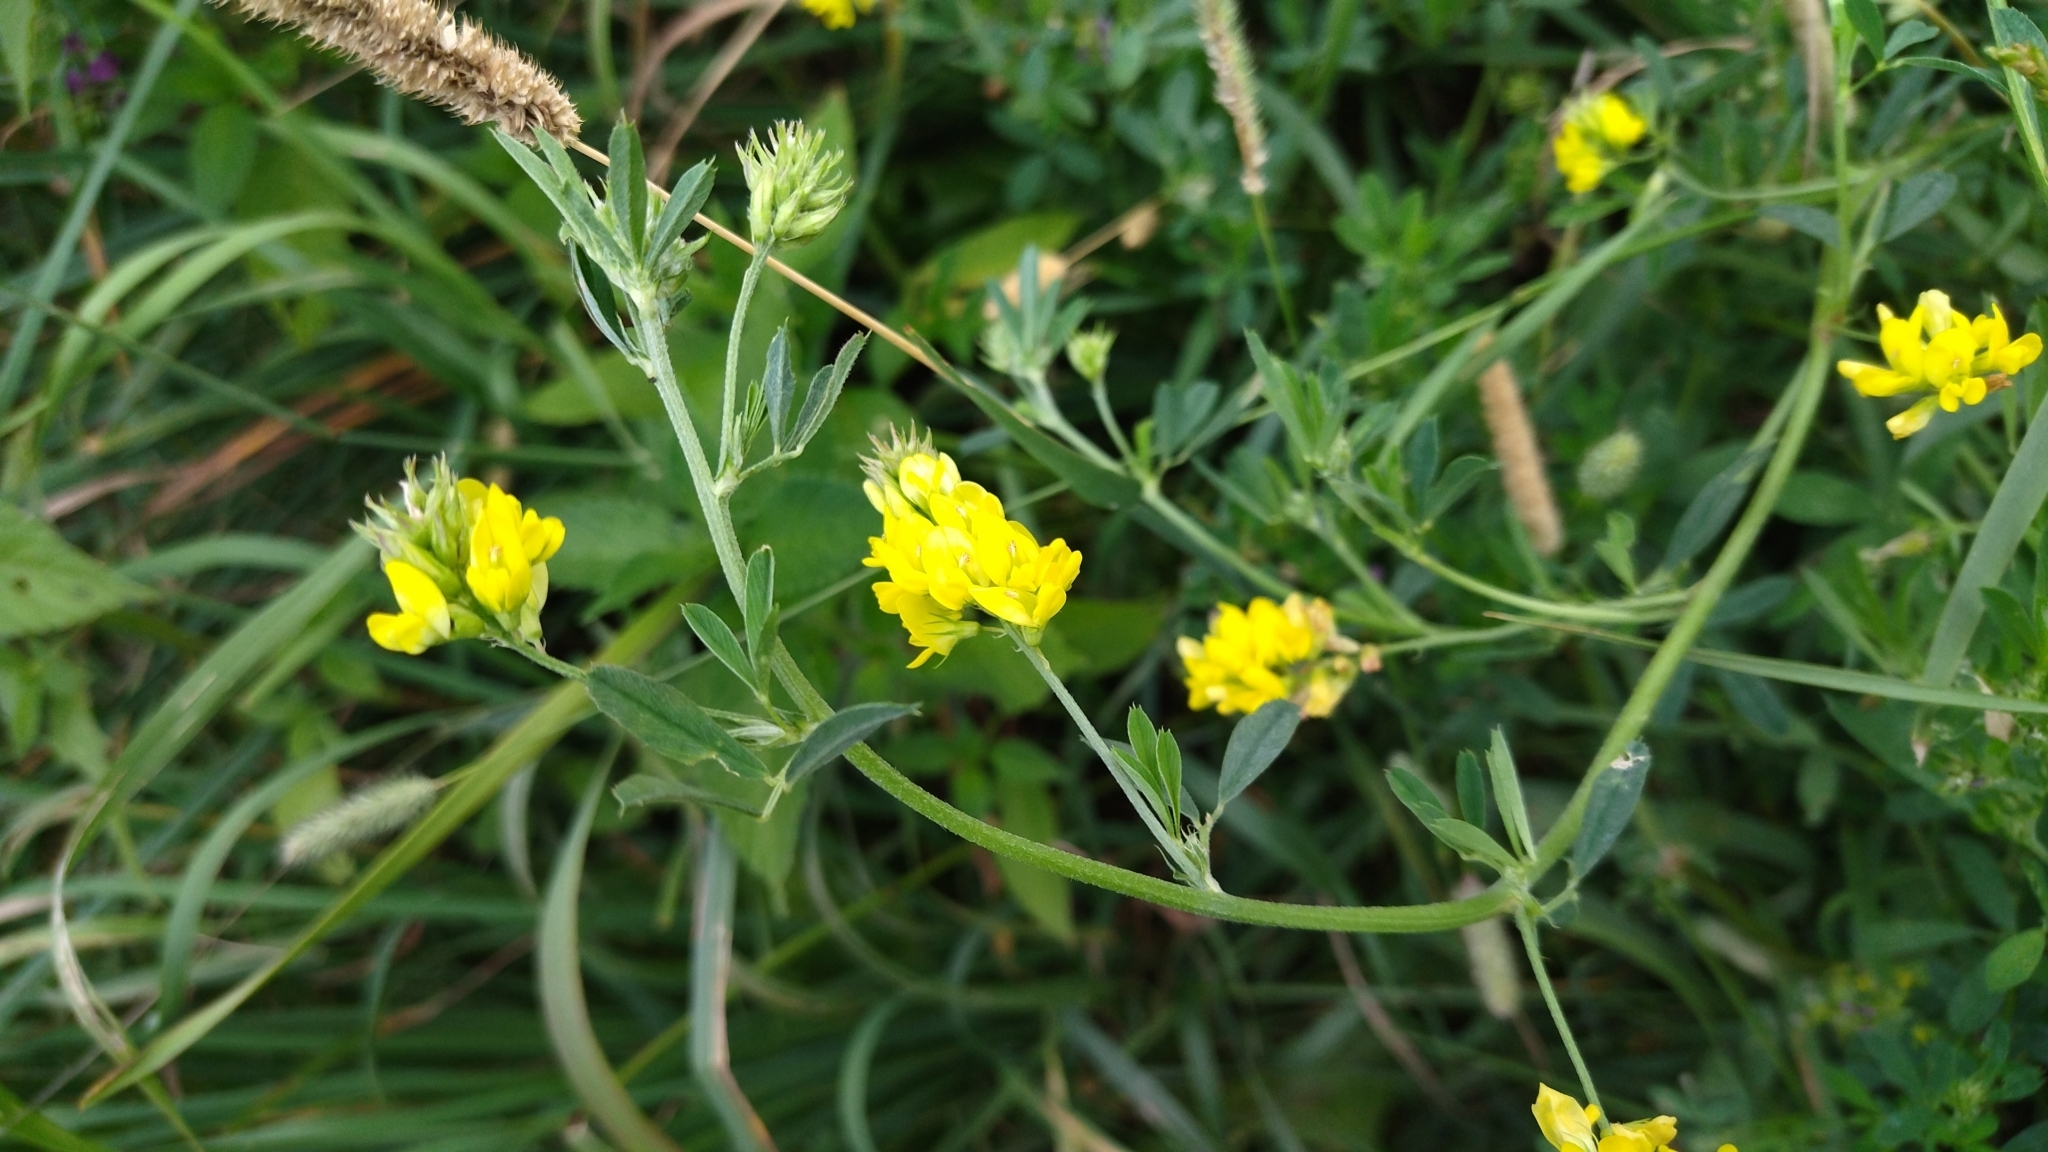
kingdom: Plantae
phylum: Tracheophyta
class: Magnoliopsida
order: Fabales
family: Fabaceae
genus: Medicago
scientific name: Medicago falcata
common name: Sickle medick
